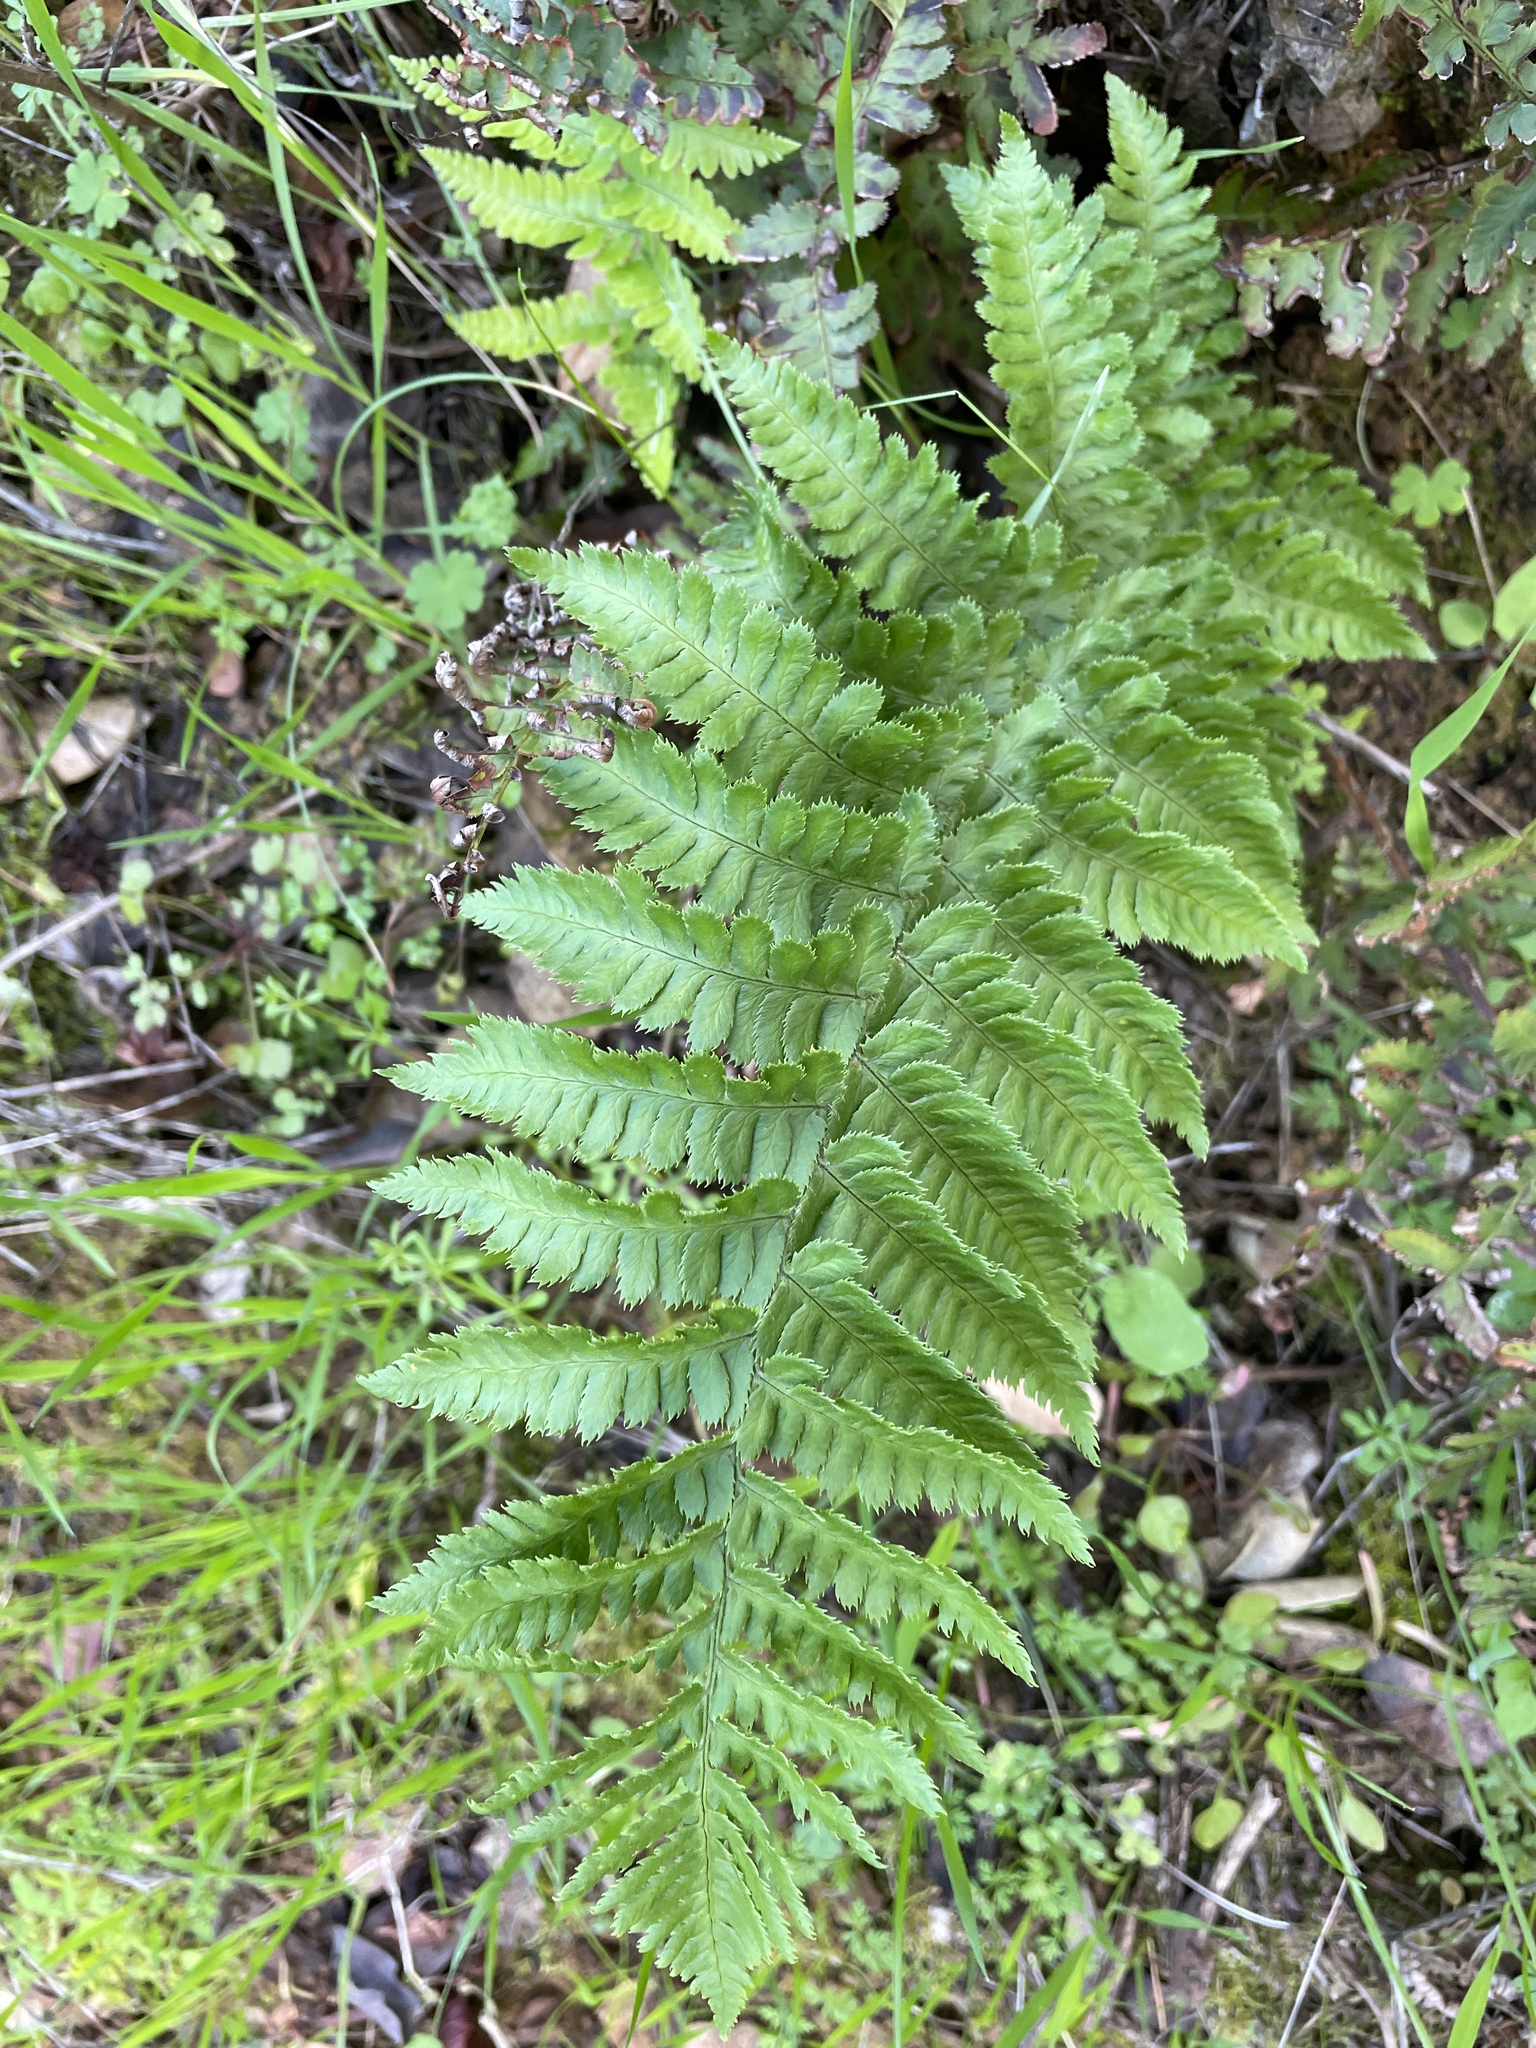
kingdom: Plantae
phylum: Tracheophyta
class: Polypodiopsida
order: Polypodiales
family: Dryopteridaceae
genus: Dryopteris
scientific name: Dryopteris arguta
